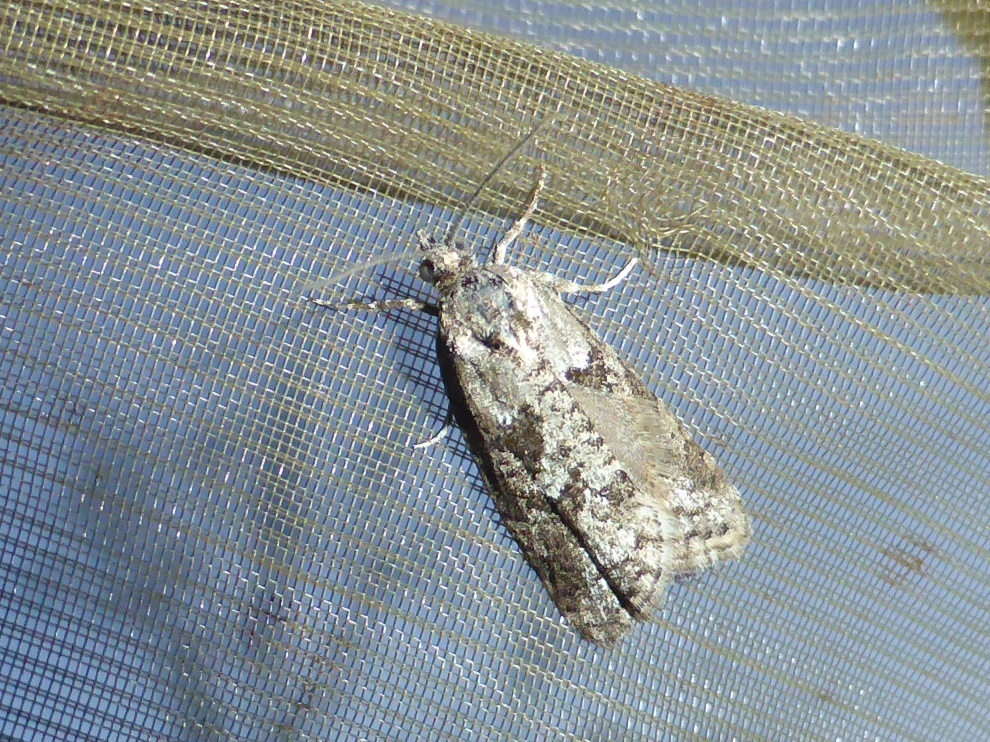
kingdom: Animalia
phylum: Arthropoda
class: Insecta
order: Lepidoptera
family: Tortricidae
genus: Cnephasia
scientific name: Cnephasia cupressivorana
